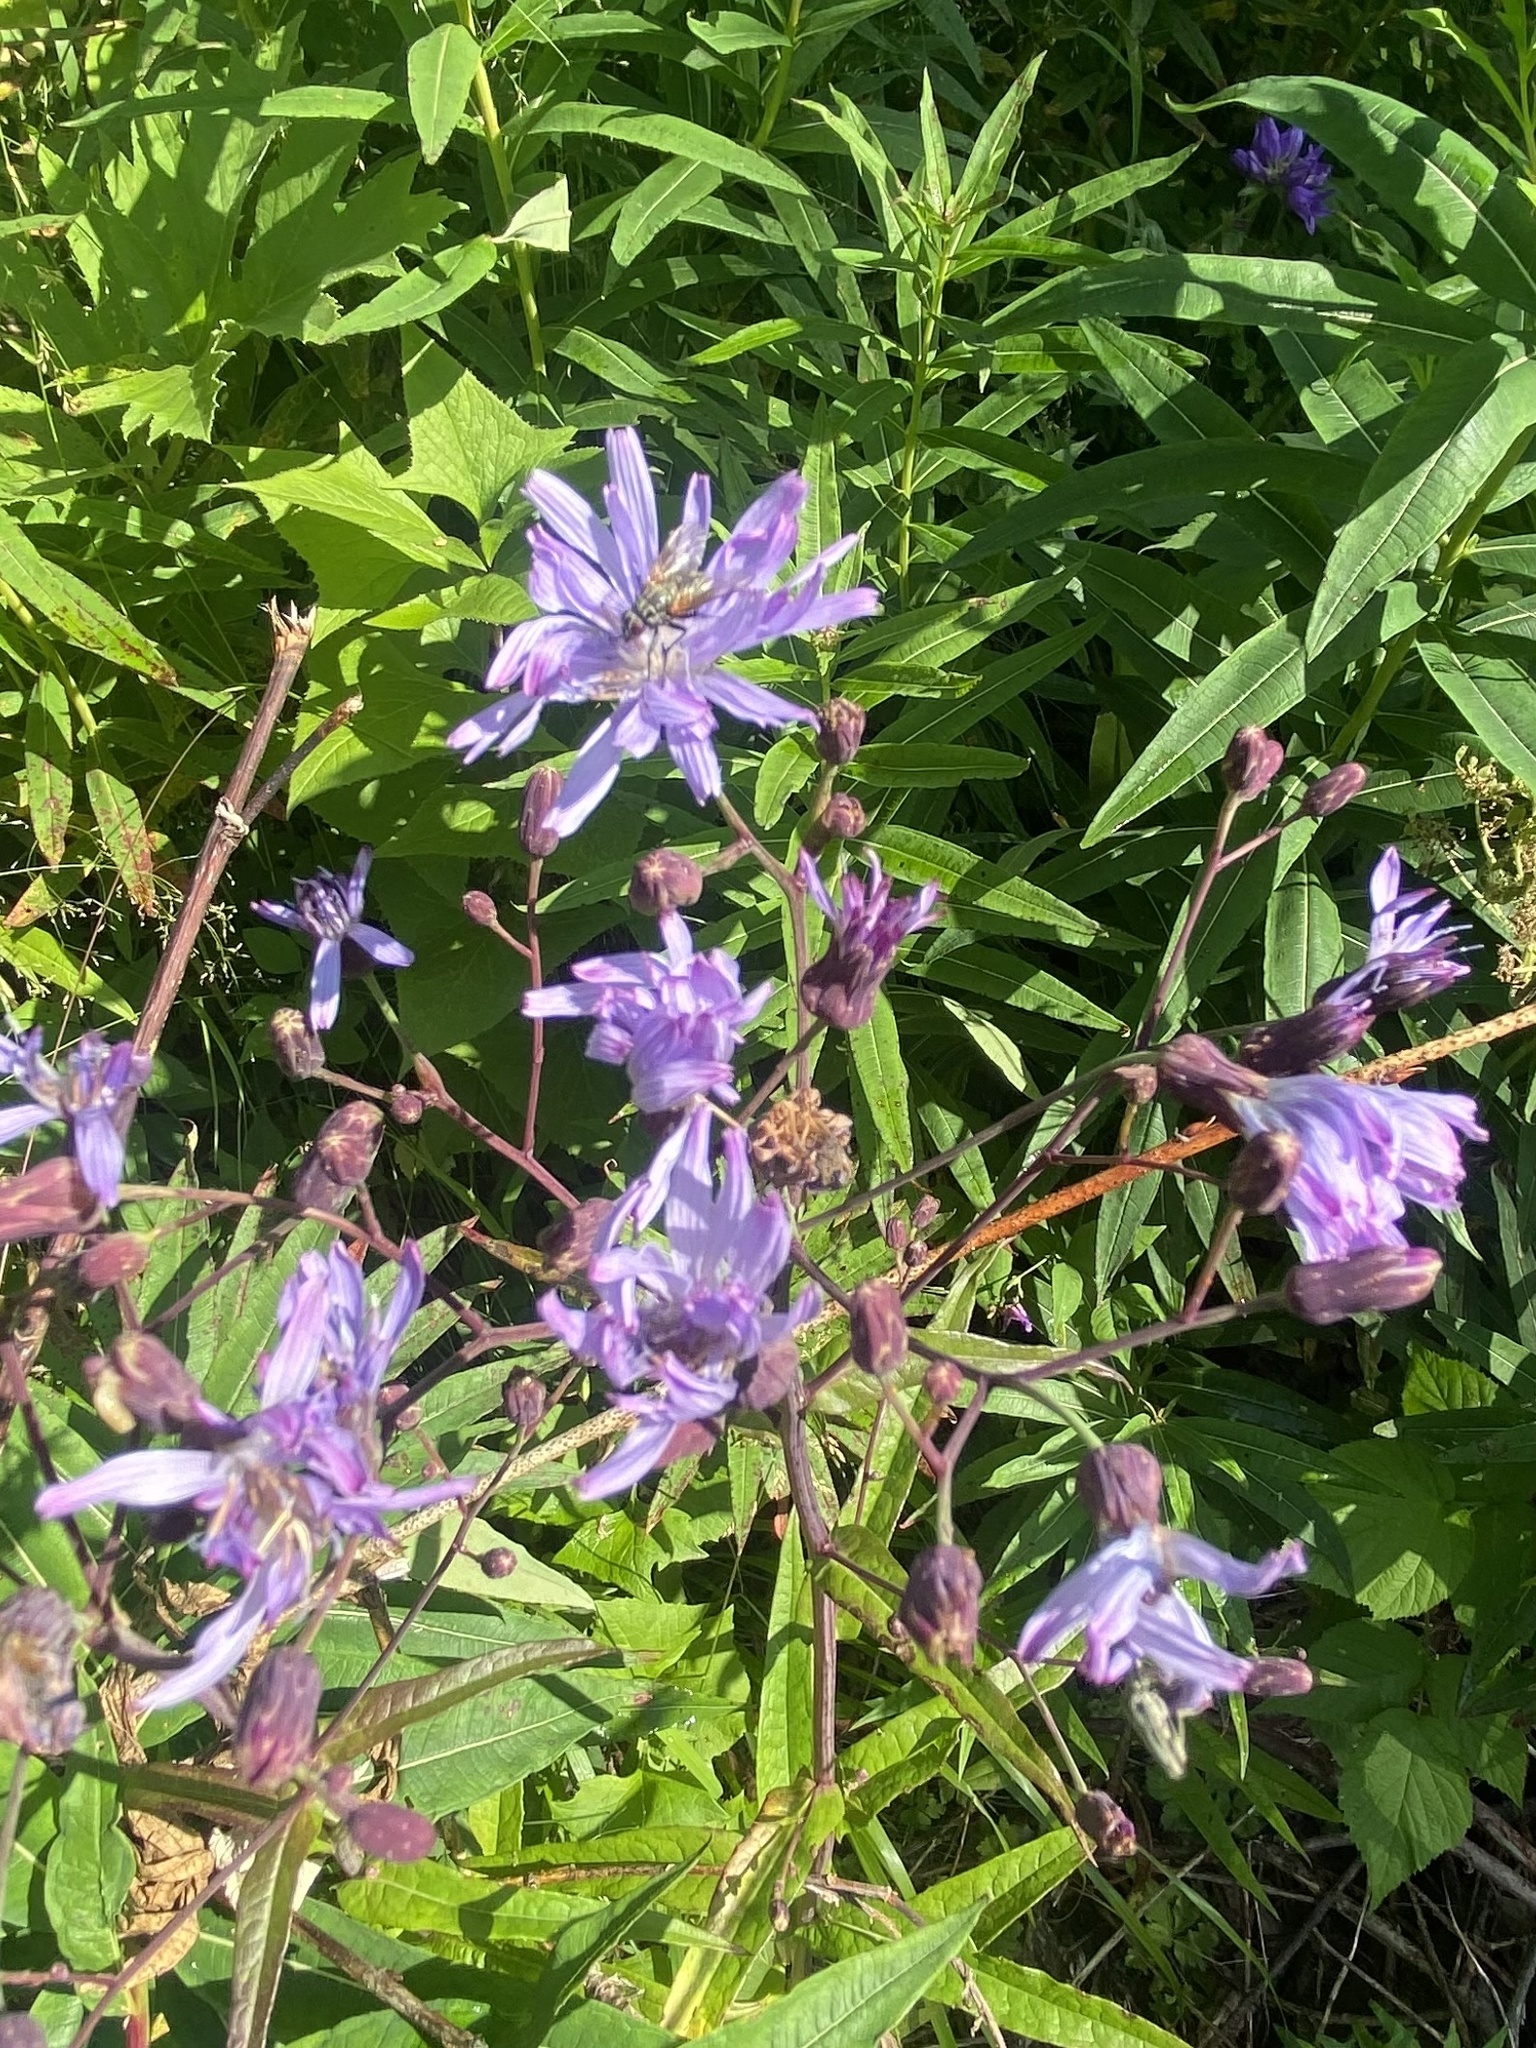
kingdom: Plantae
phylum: Tracheophyta
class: Magnoliopsida
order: Asterales
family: Asteraceae
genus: Lactuca
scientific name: Lactuca sibirica
